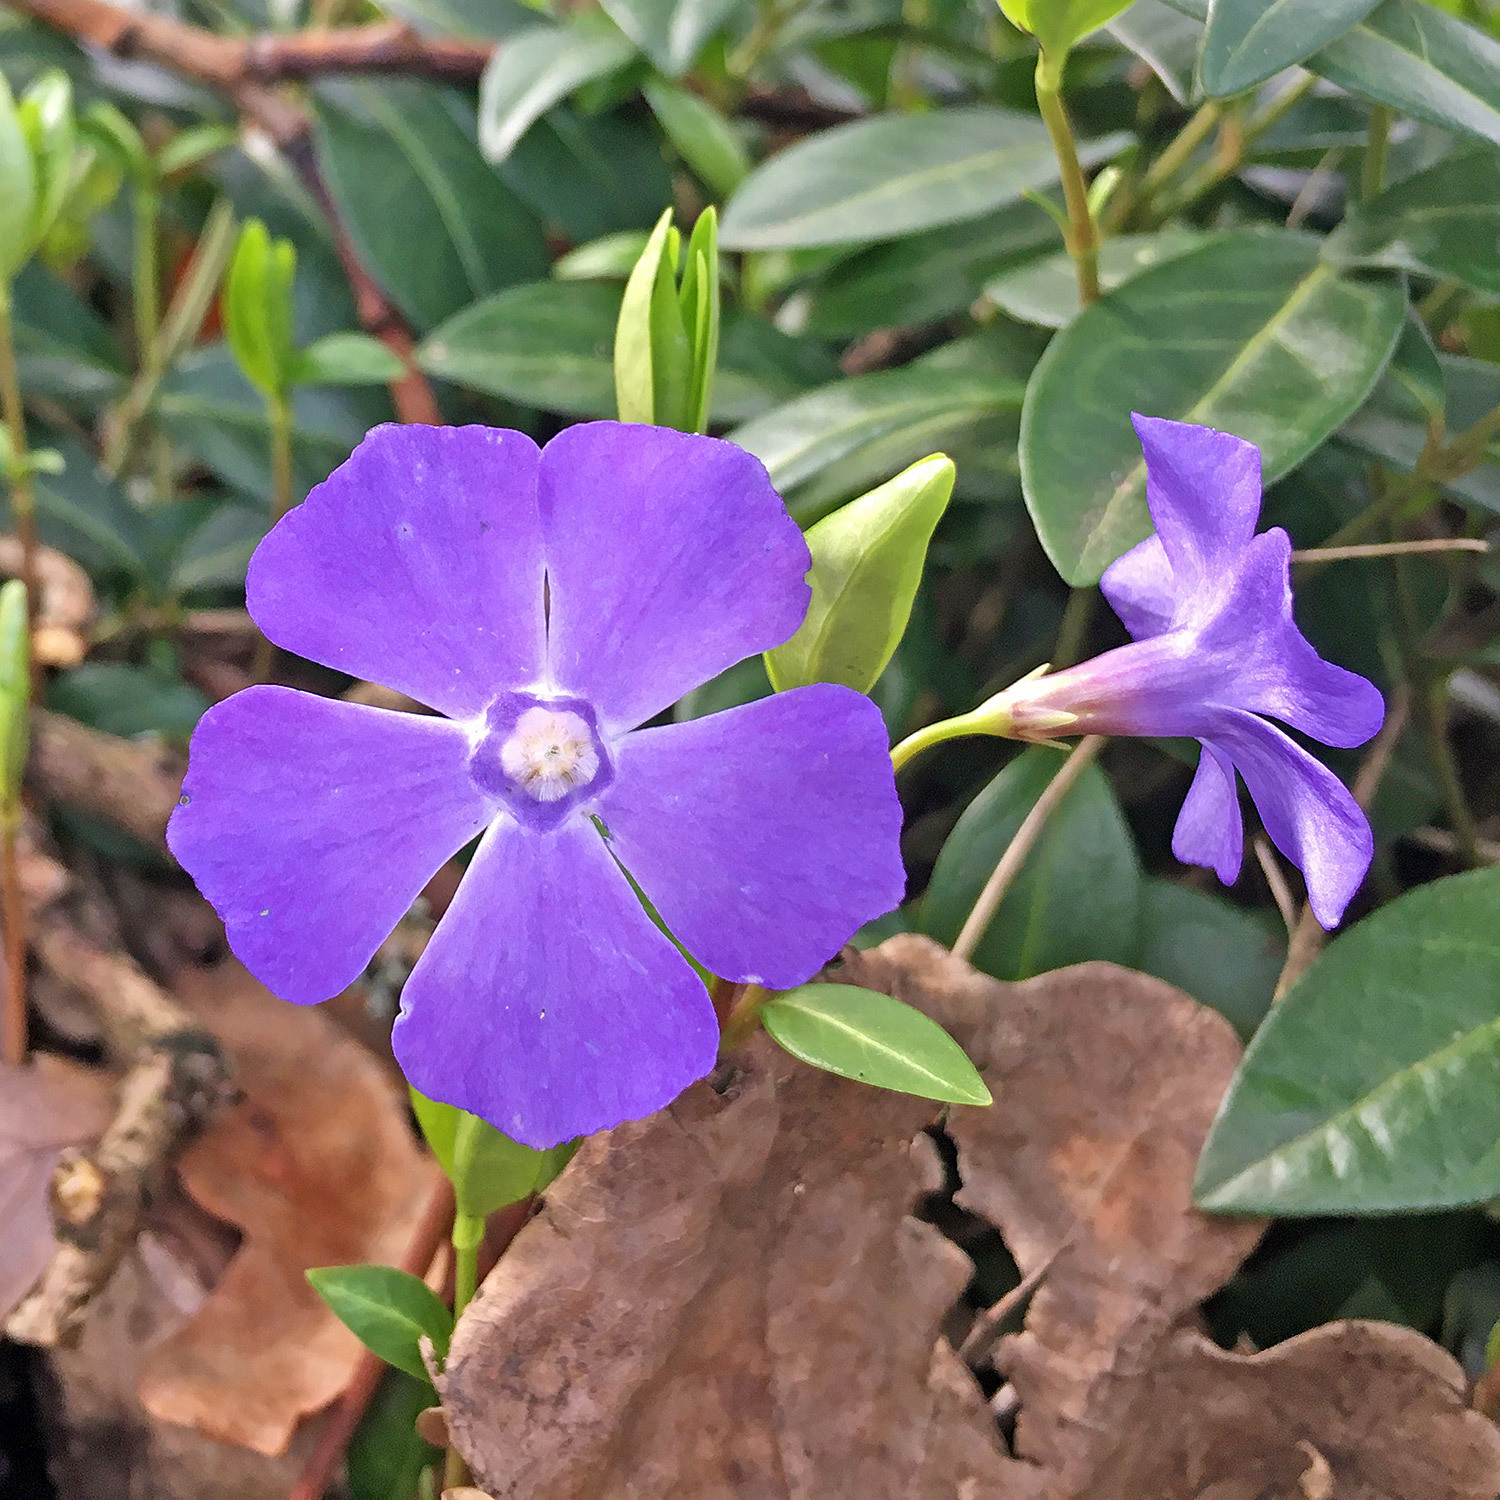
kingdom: Plantae
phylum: Tracheophyta
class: Magnoliopsida
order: Gentianales
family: Apocynaceae
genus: Vinca
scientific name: Vinca minor
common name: Lesser periwinkle
